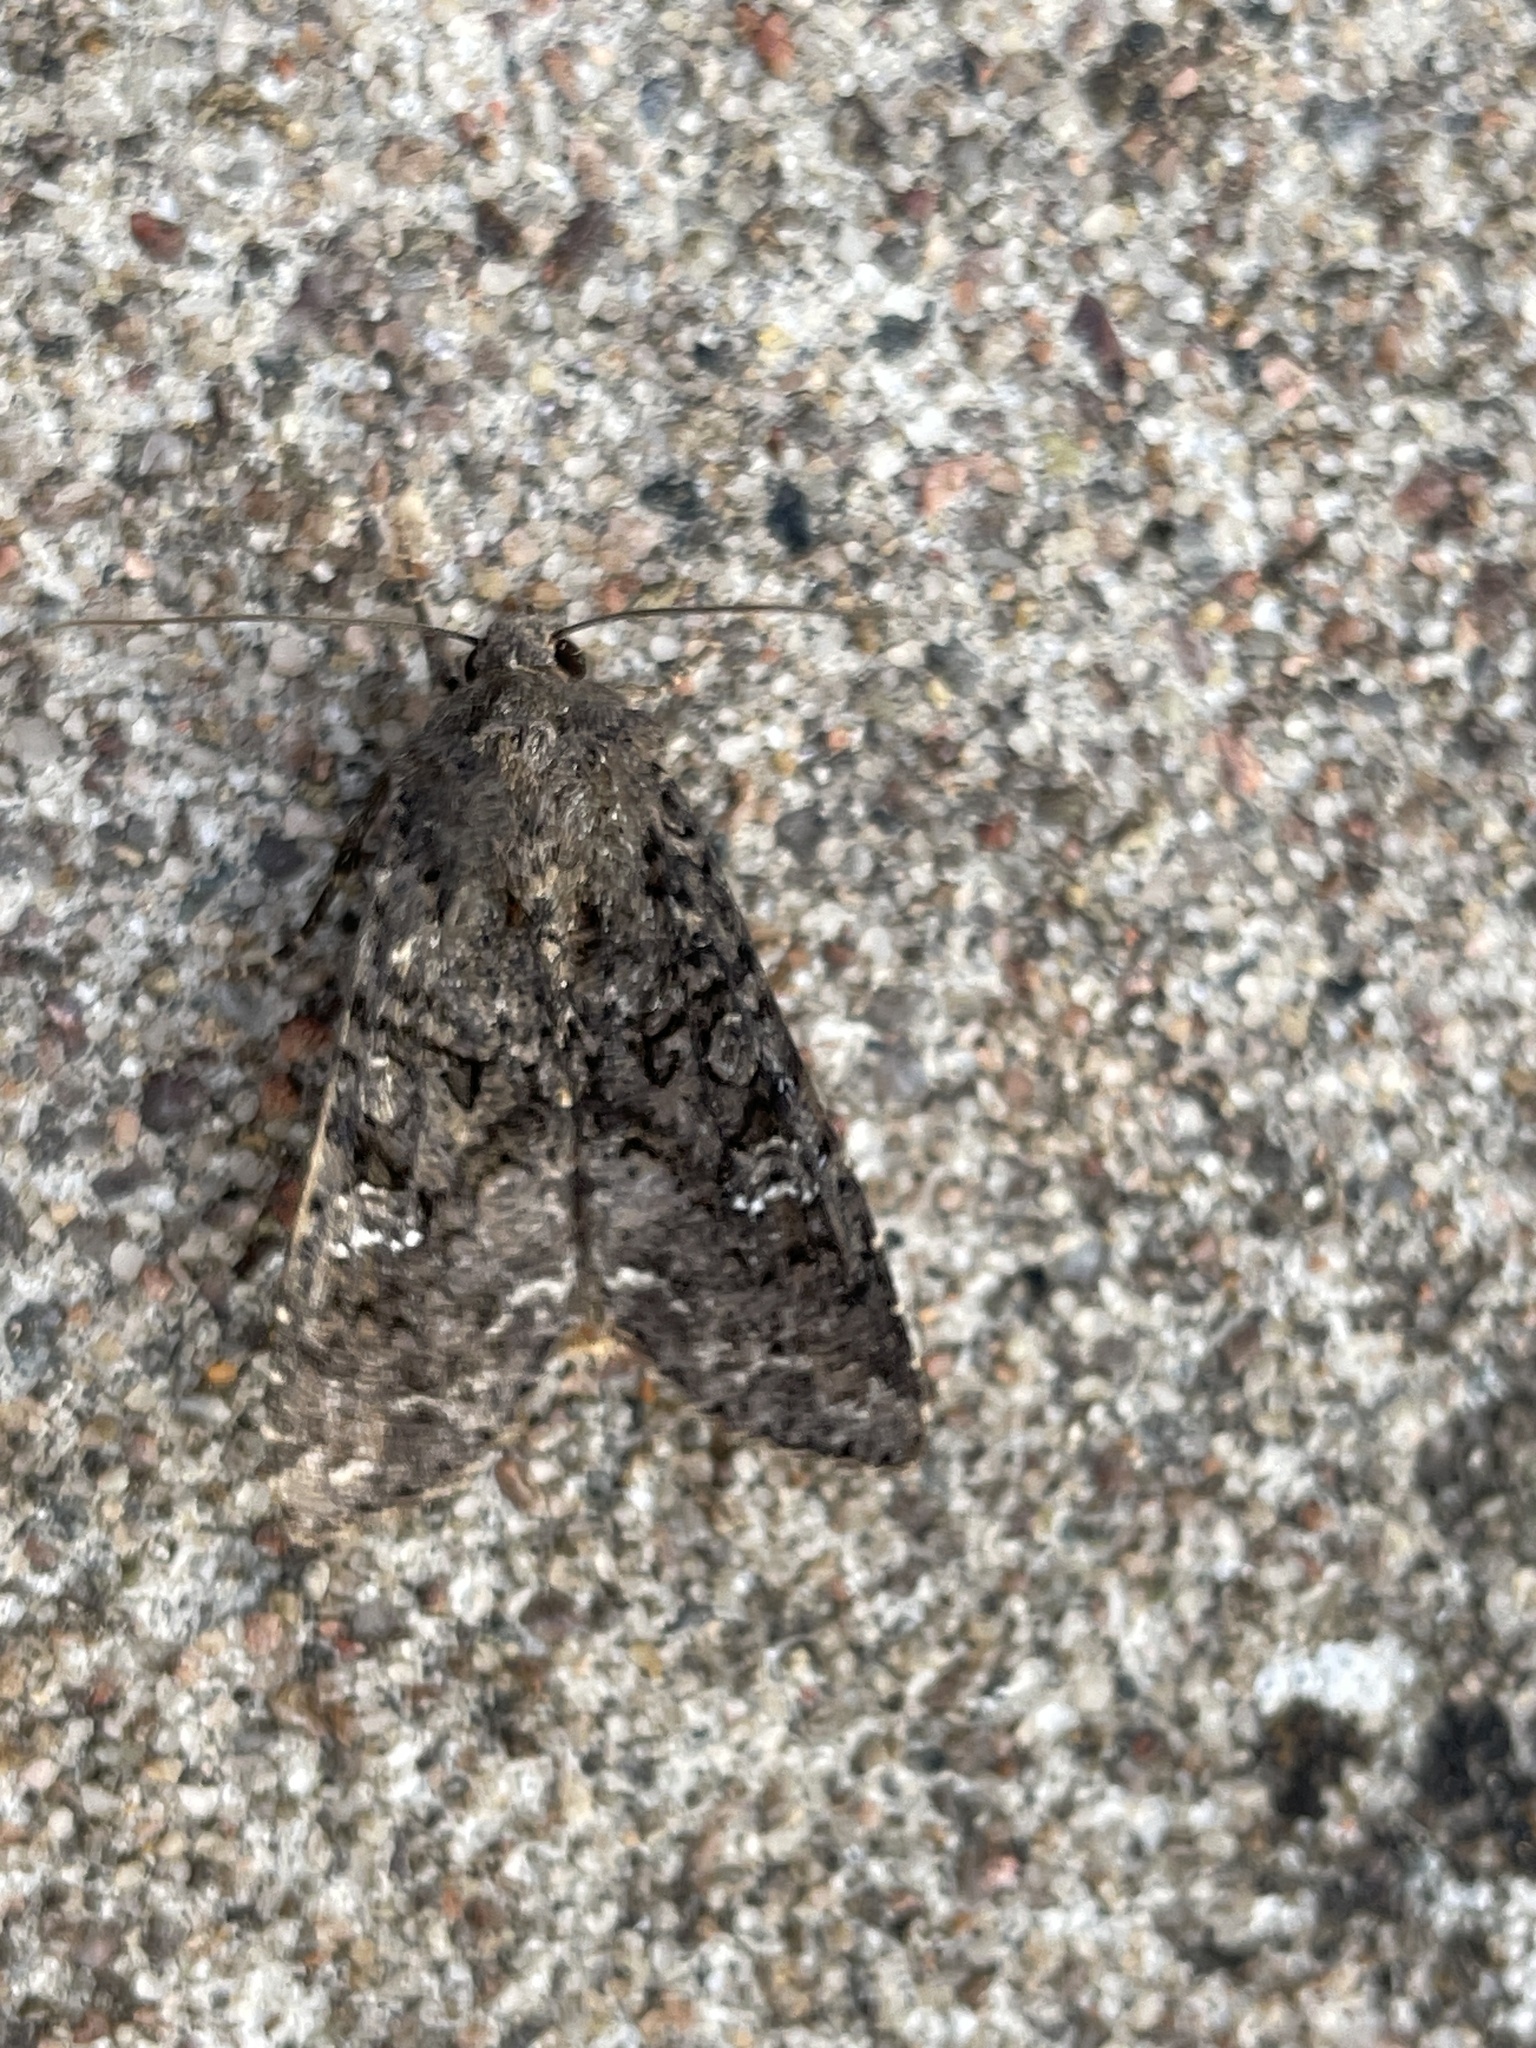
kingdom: Animalia
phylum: Arthropoda
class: Insecta
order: Lepidoptera
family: Noctuidae
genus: Mamestra
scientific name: Mamestra brassicae
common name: Cabbage moth
